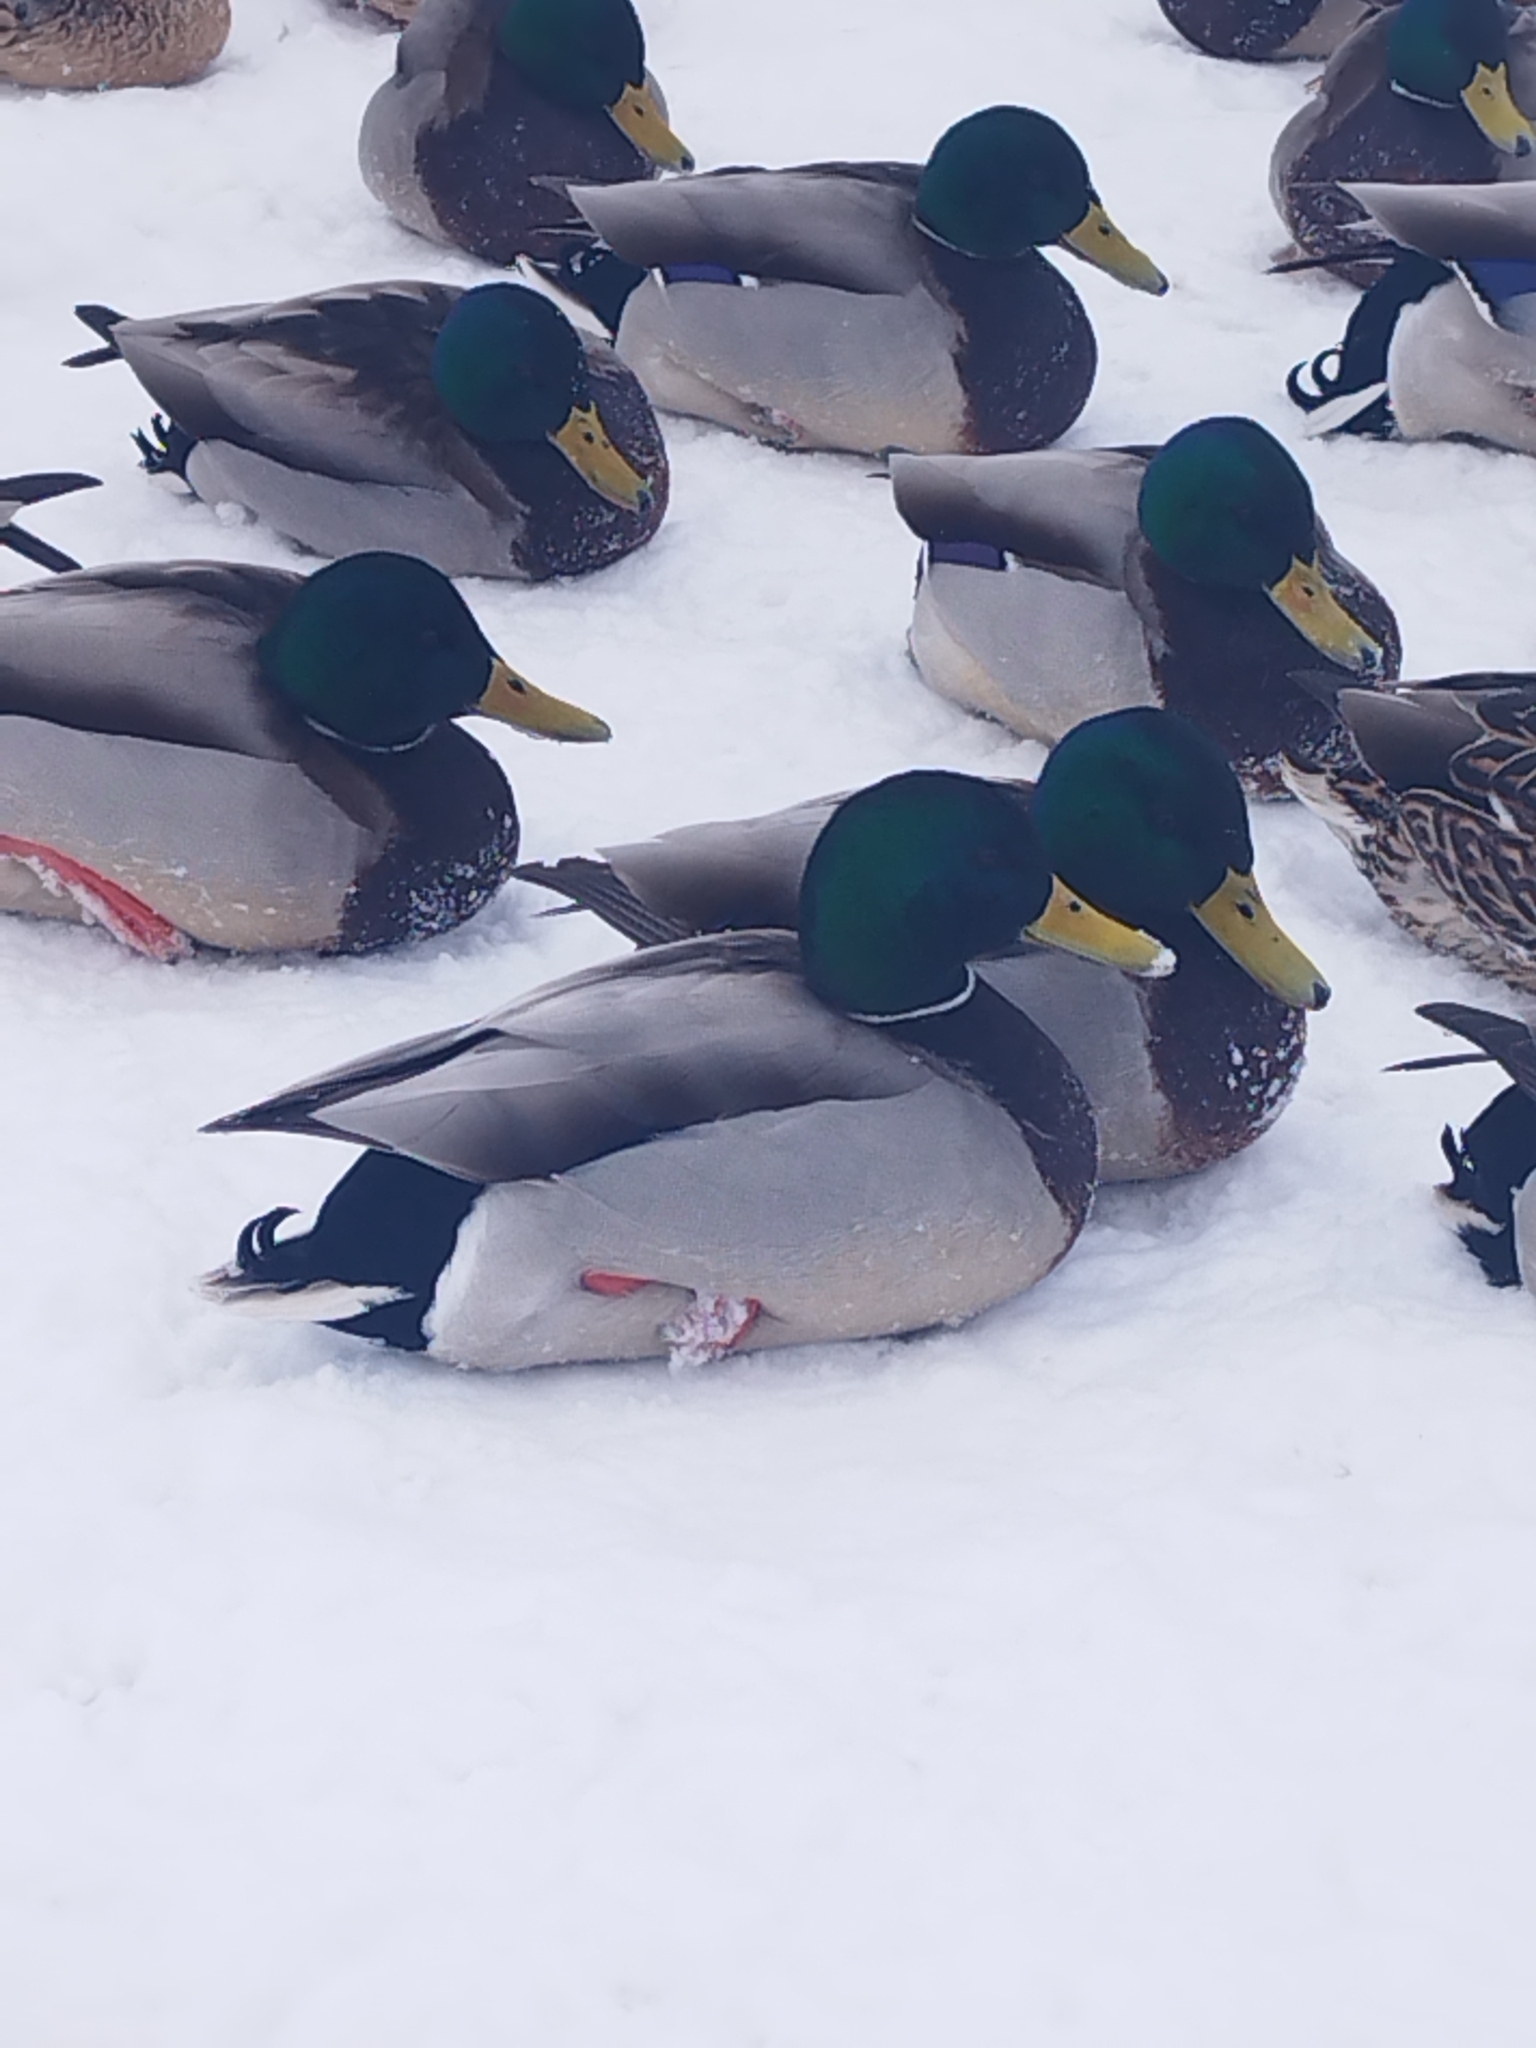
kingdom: Animalia
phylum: Chordata
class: Aves
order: Anseriformes
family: Anatidae
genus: Anas
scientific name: Anas platyrhynchos
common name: Mallard
